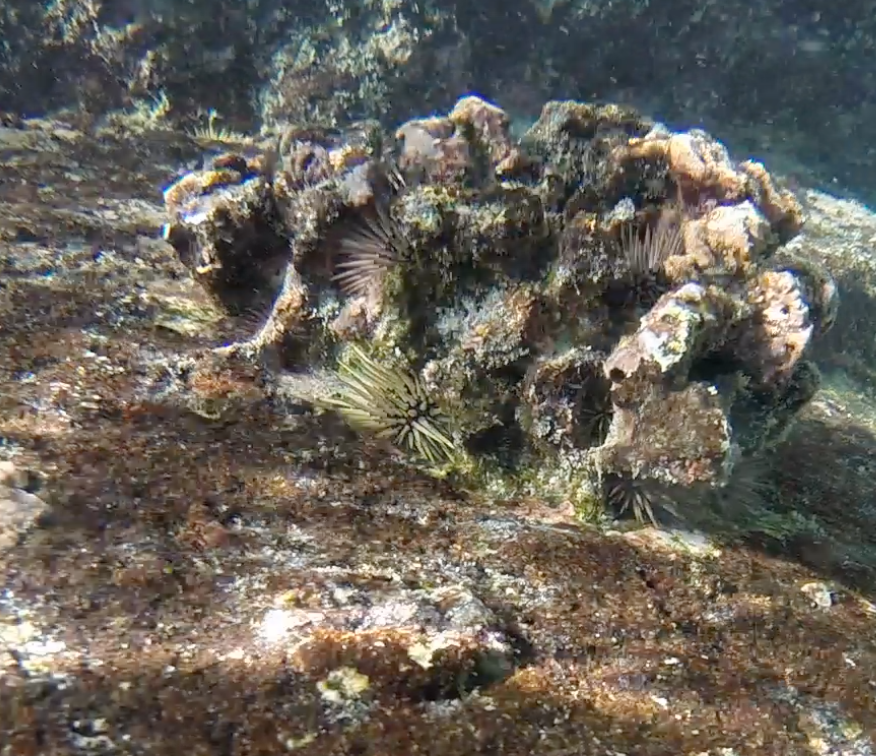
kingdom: Animalia
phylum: Echinodermata
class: Echinoidea
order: Camarodonta
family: Echinometridae
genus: Echinometra
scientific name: Echinometra mathaei
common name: Rock-boring urchin
